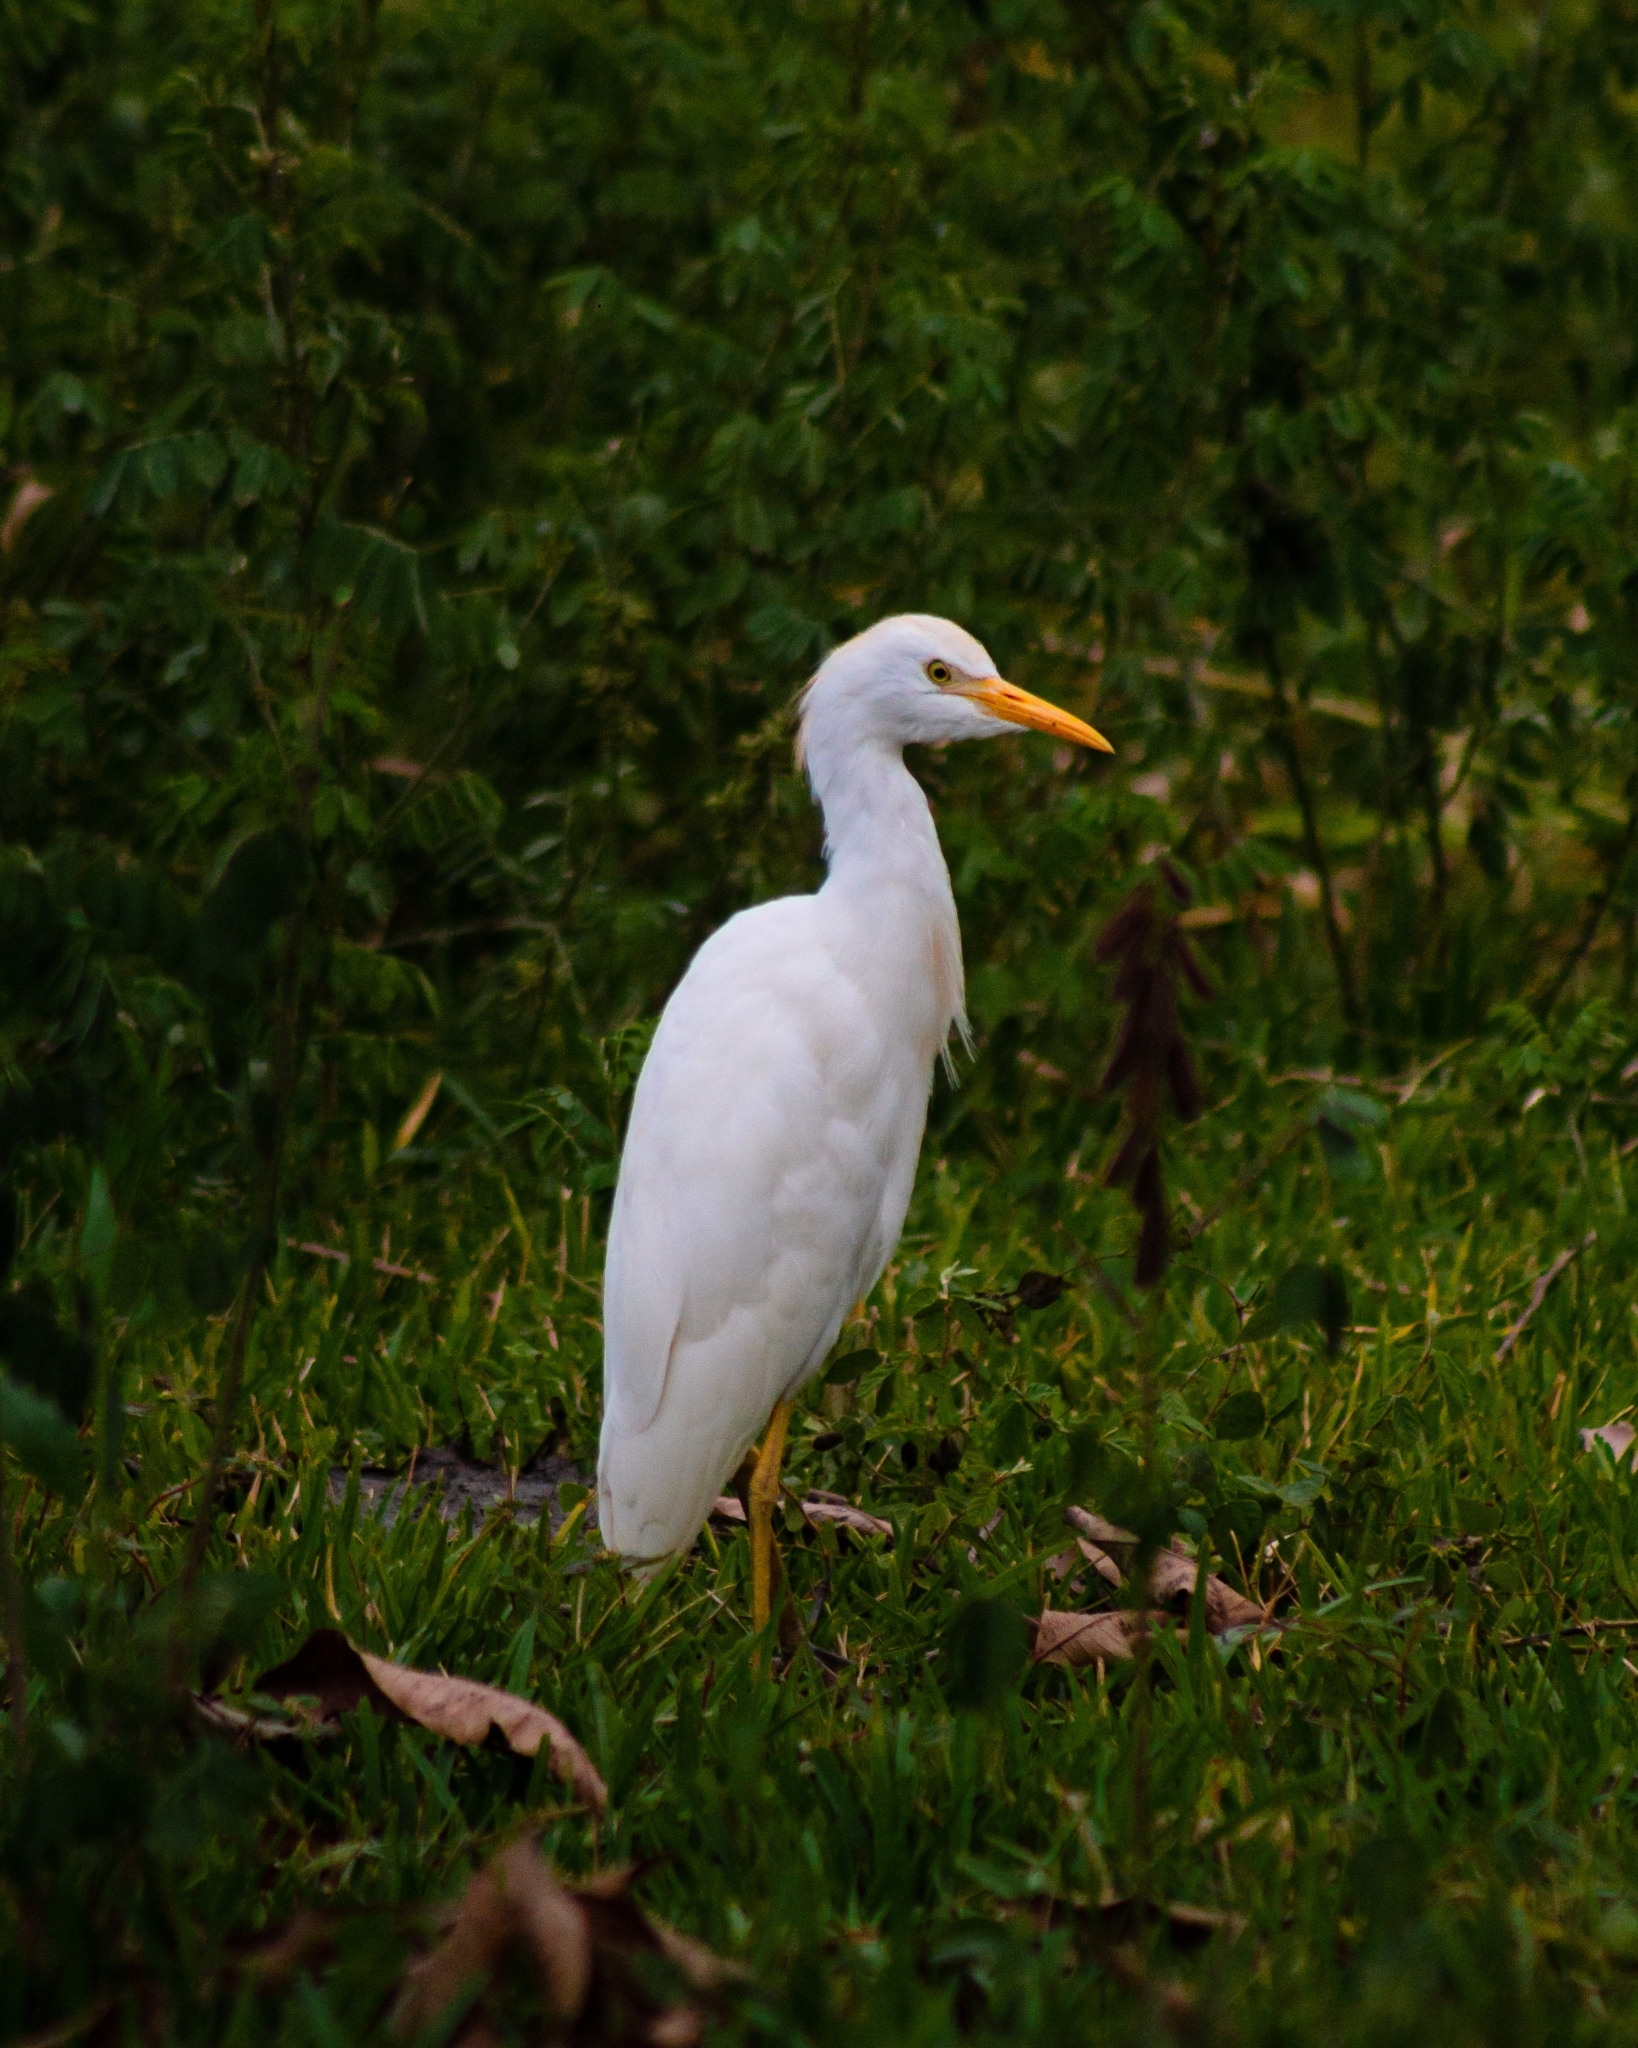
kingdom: Animalia
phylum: Chordata
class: Aves
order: Pelecaniformes
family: Ardeidae
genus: Bubulcus
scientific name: Bubulcus ibis
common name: Cattle egret
